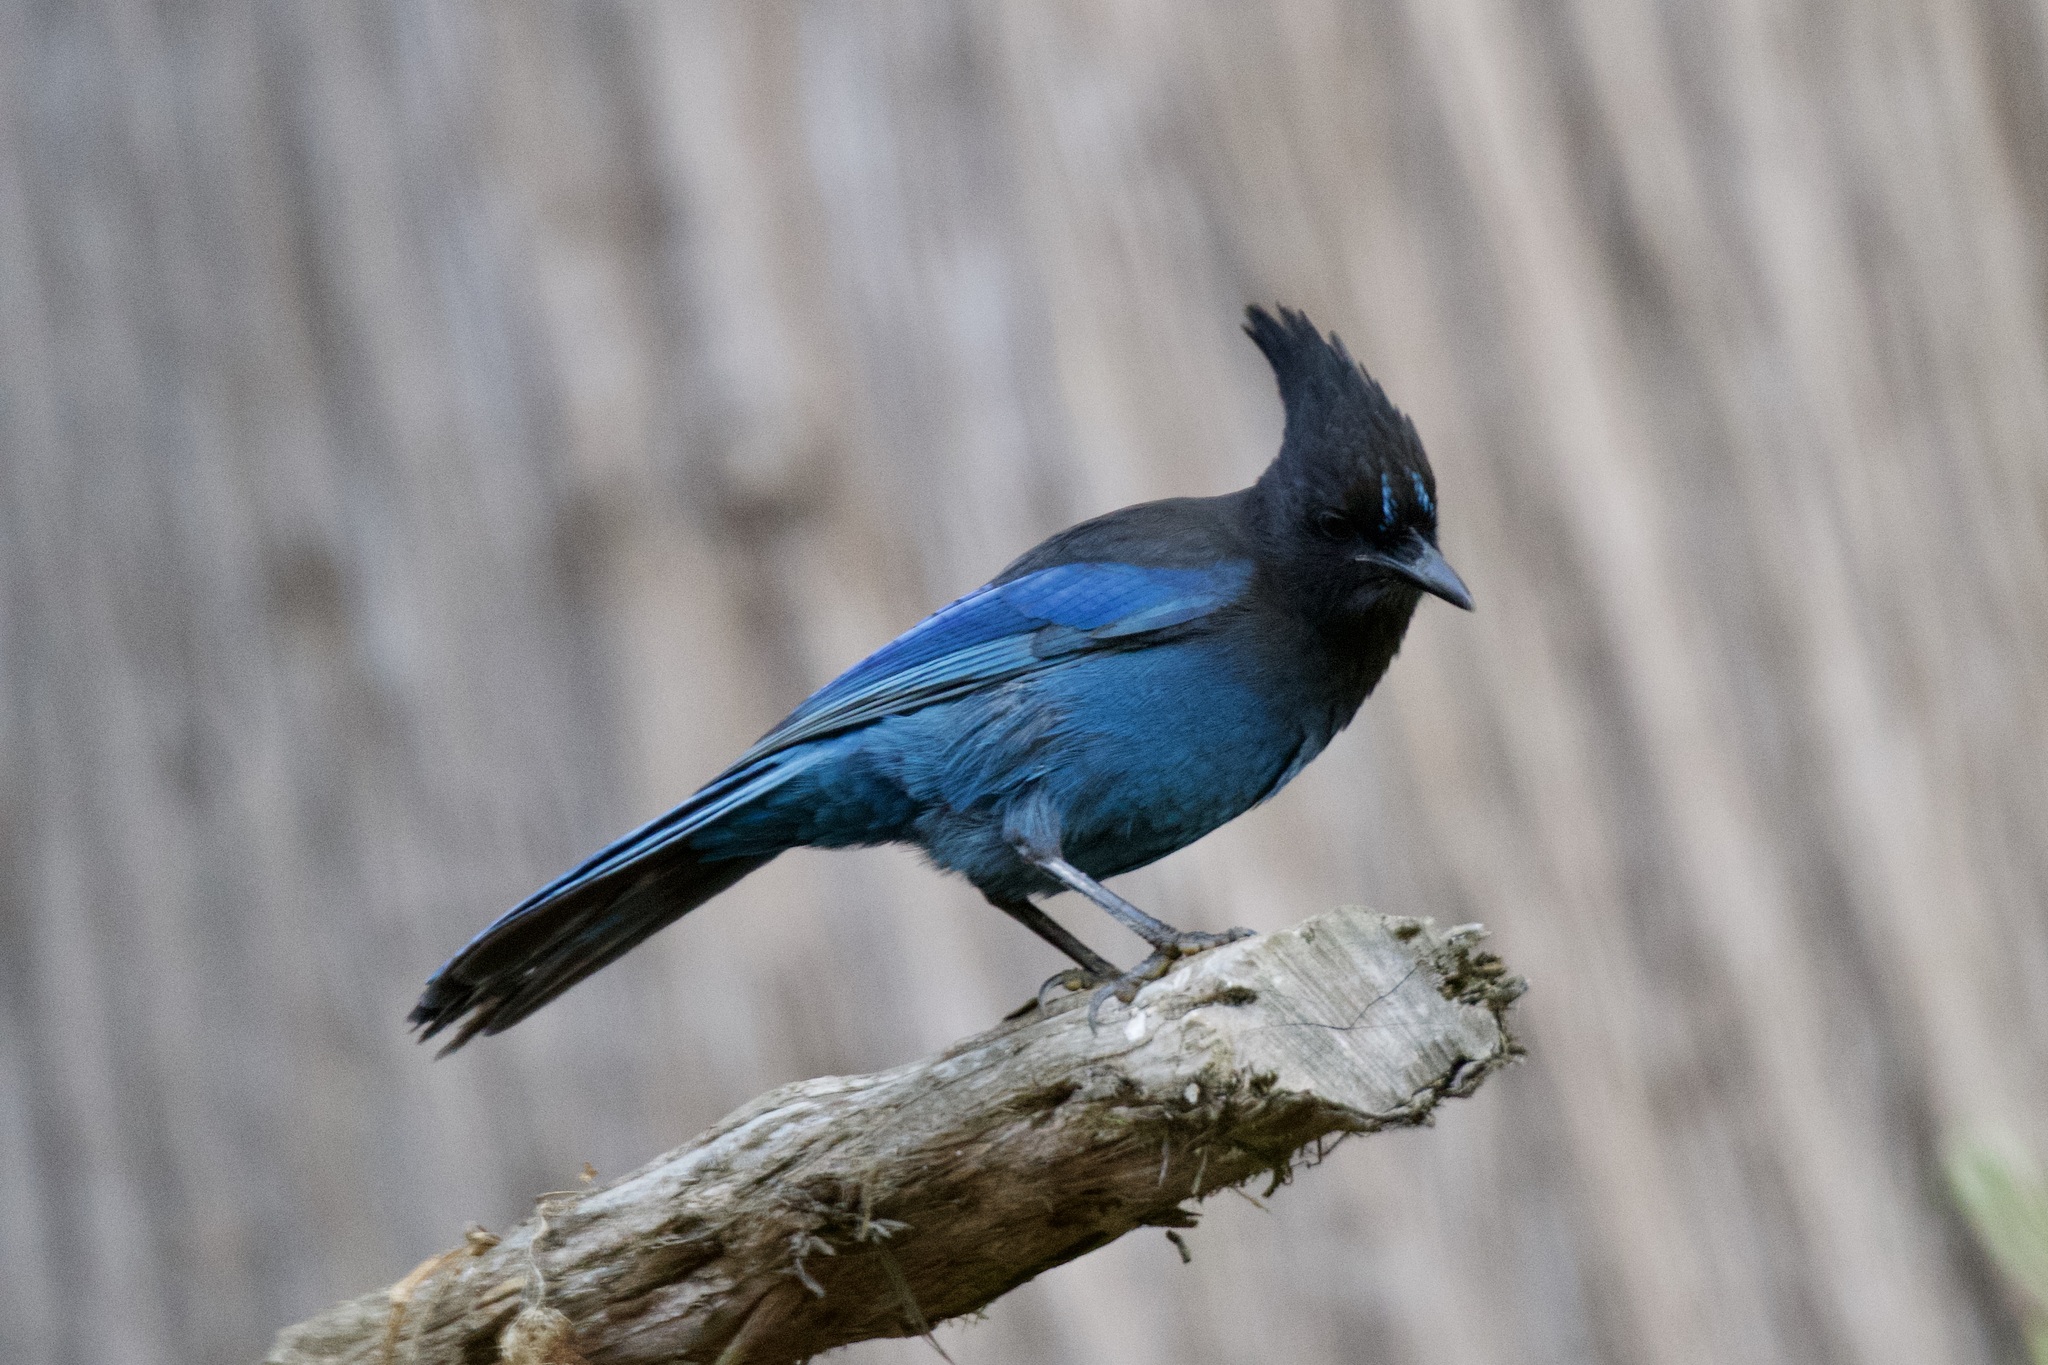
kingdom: Animalia
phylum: Chordata
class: Aves
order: Passeriformes
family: Corvidae
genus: Cyanocitta
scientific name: Cyanocitta stelleri
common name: Steller's jay
